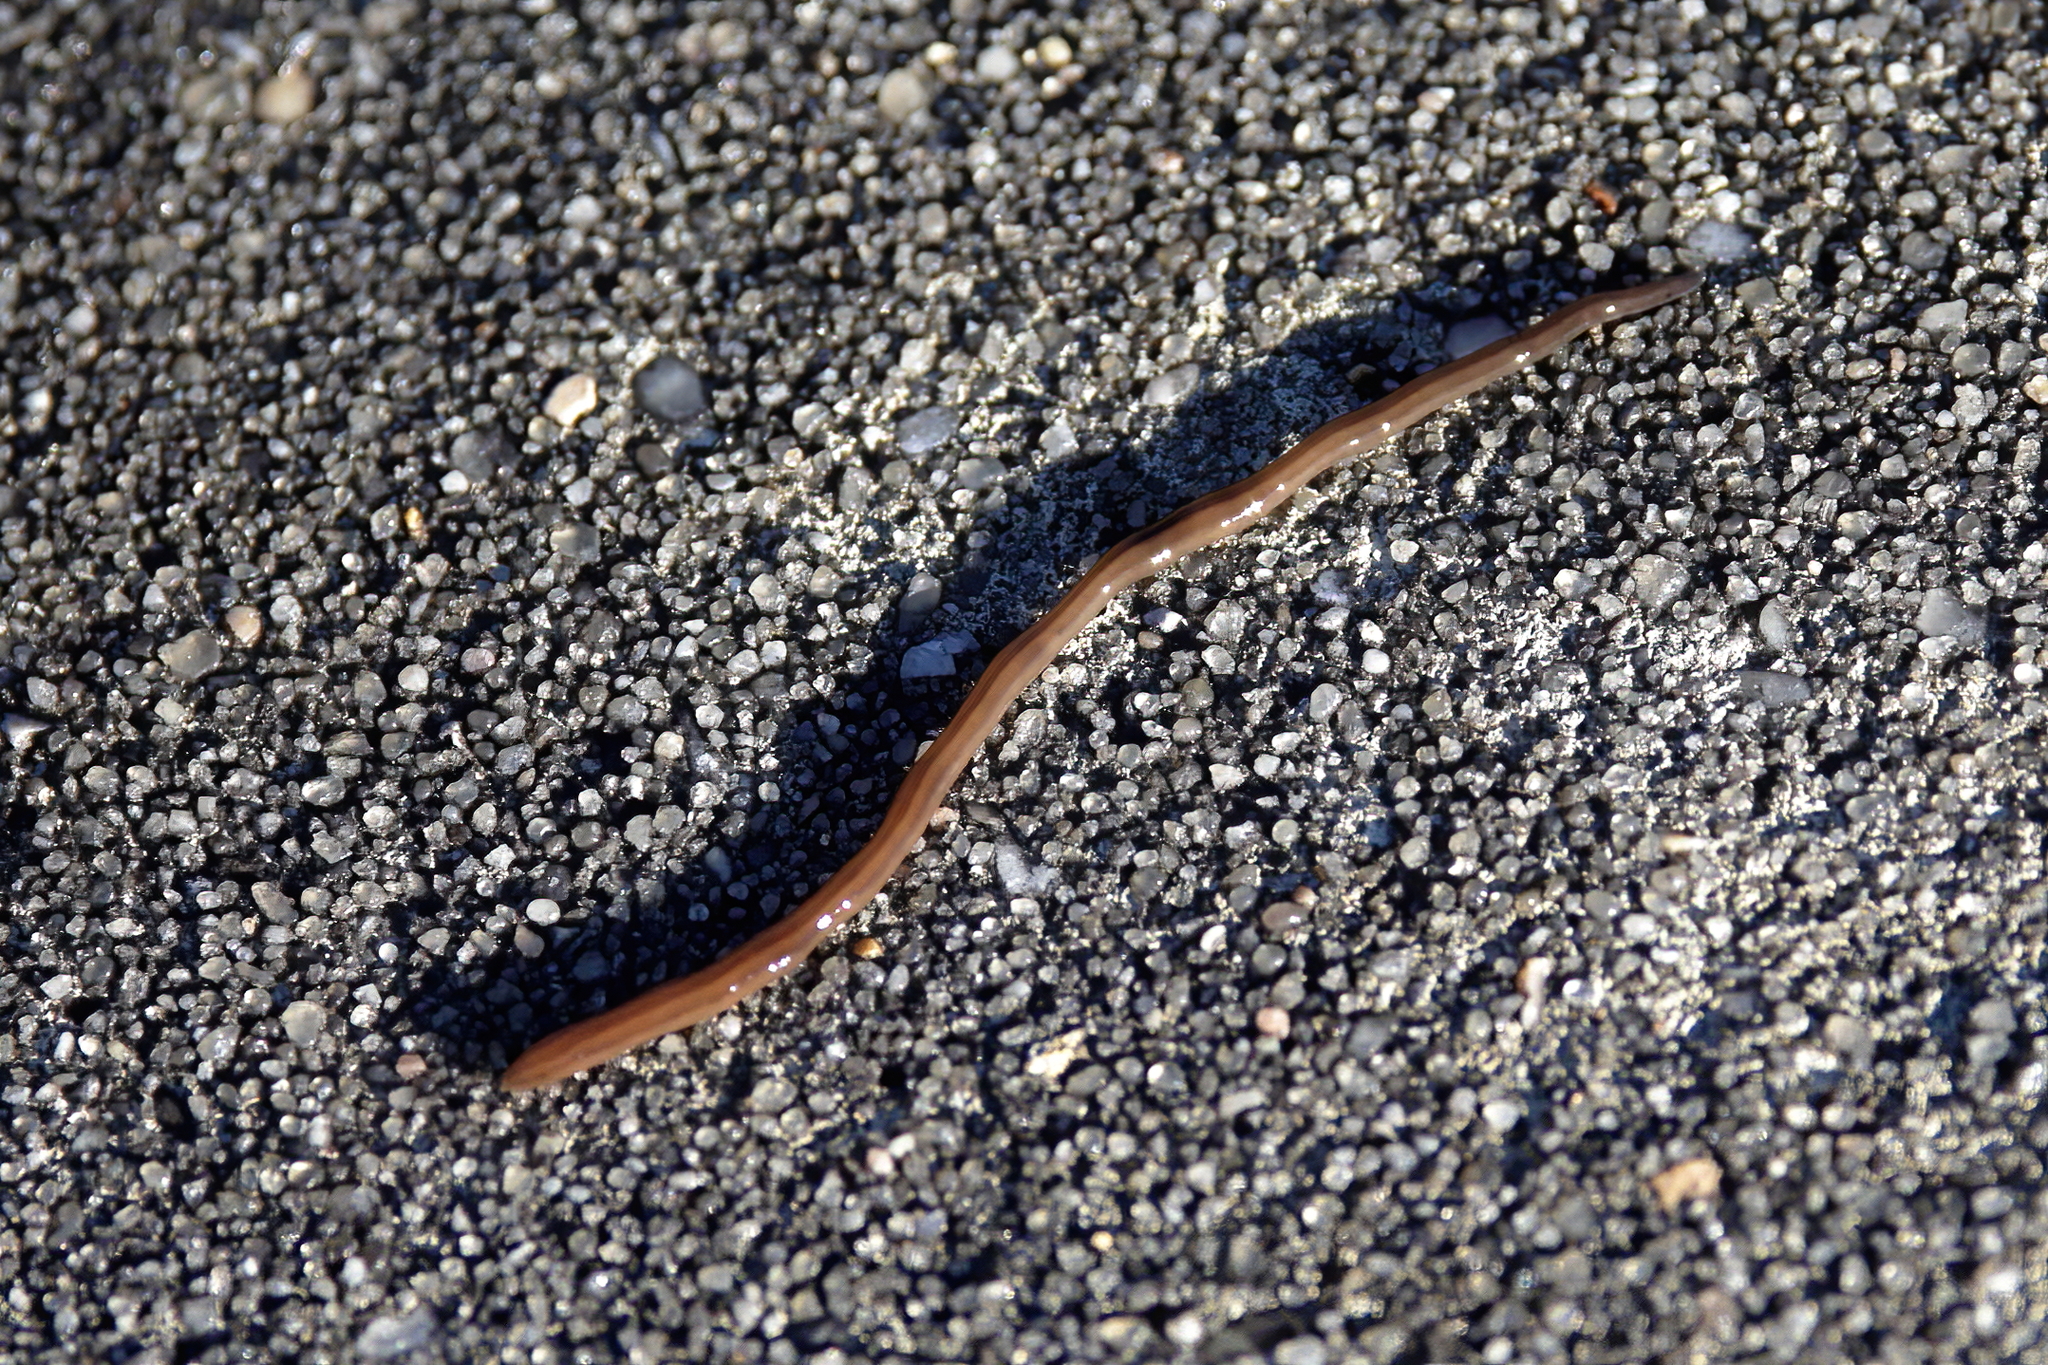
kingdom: Animalia
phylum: Platyhelminthes
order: Tricladida
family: Geoplanidae
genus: Dolichoplana
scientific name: Dolichoplana striata
